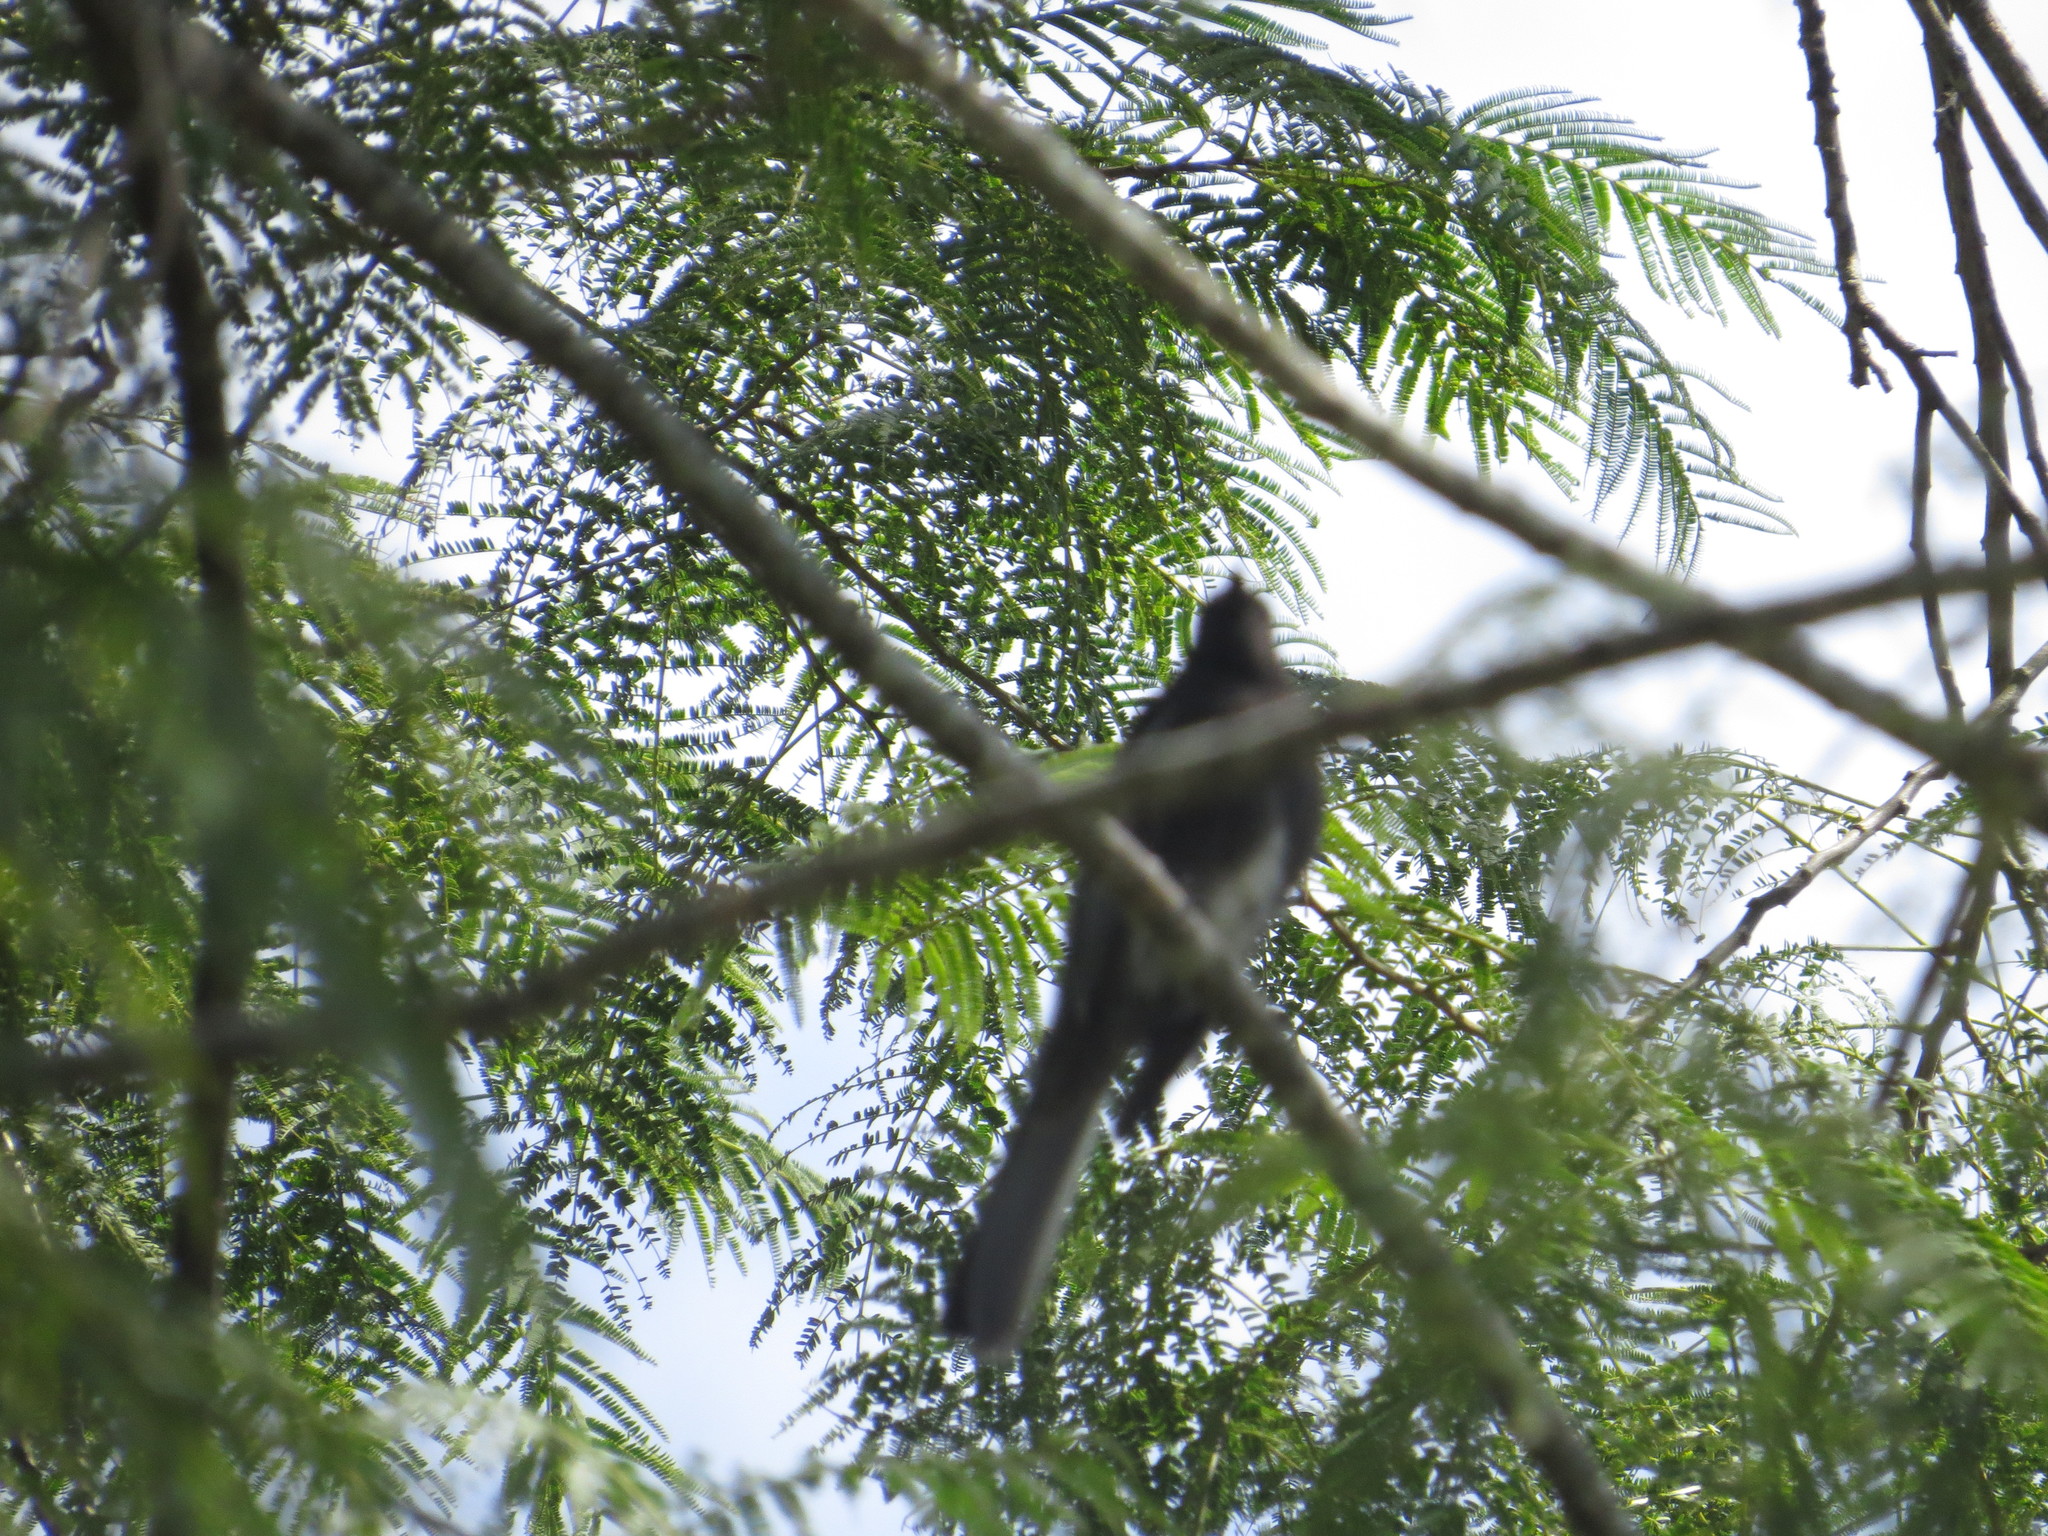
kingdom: Animalia
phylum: Chordata
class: Aves
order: Passeriformes
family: Tyrannidae
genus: Sayornis
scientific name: Sayornis nigricans
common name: Black phoebe
